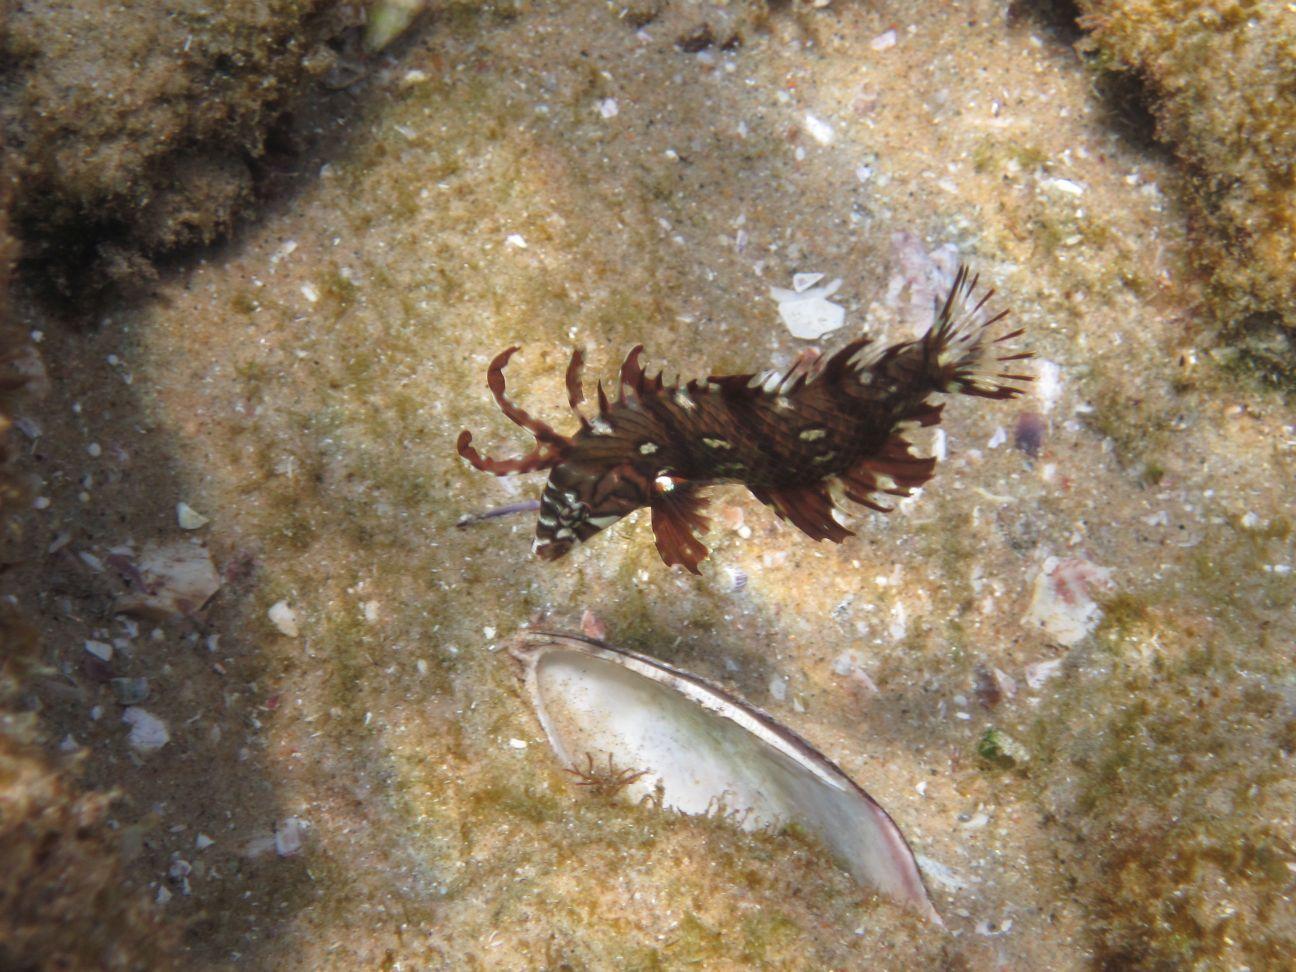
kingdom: Animalia
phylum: Chordata
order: Perciformes
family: Labridae
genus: Novaculichthys
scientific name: Novaculichthys taeniourus
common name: Rockmover wrasse
